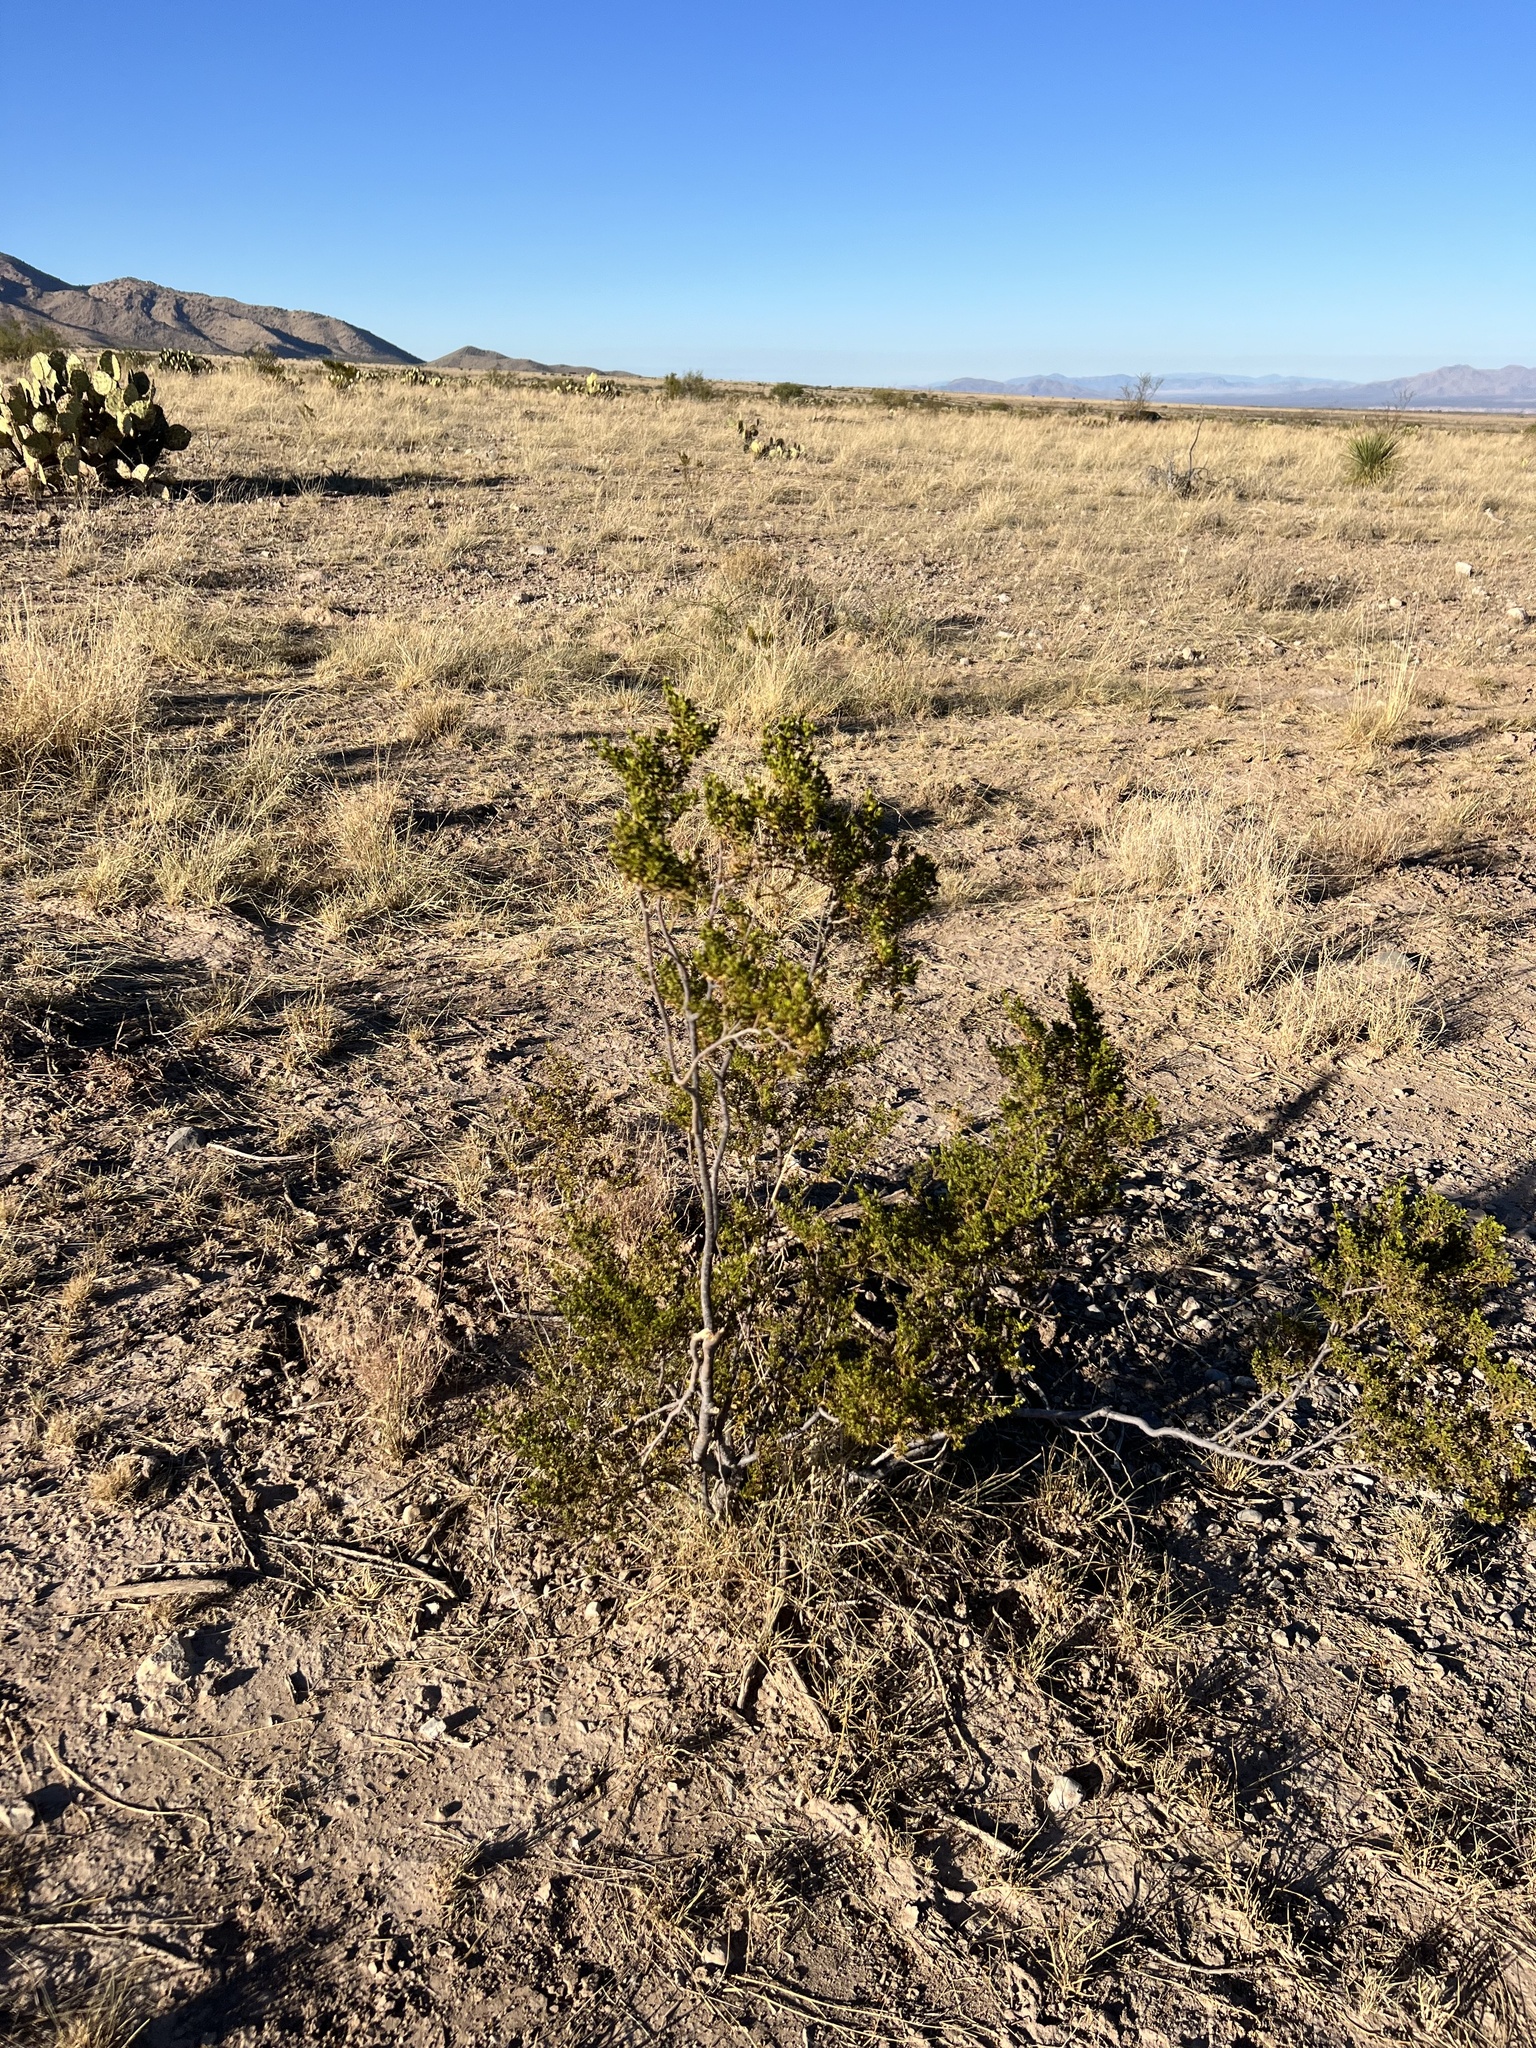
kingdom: Plantae
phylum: Tracheophyta
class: Magnoliopsida
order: Zygophyllales
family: Zygophyllaceae
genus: Larrea
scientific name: Larrea tridentata
